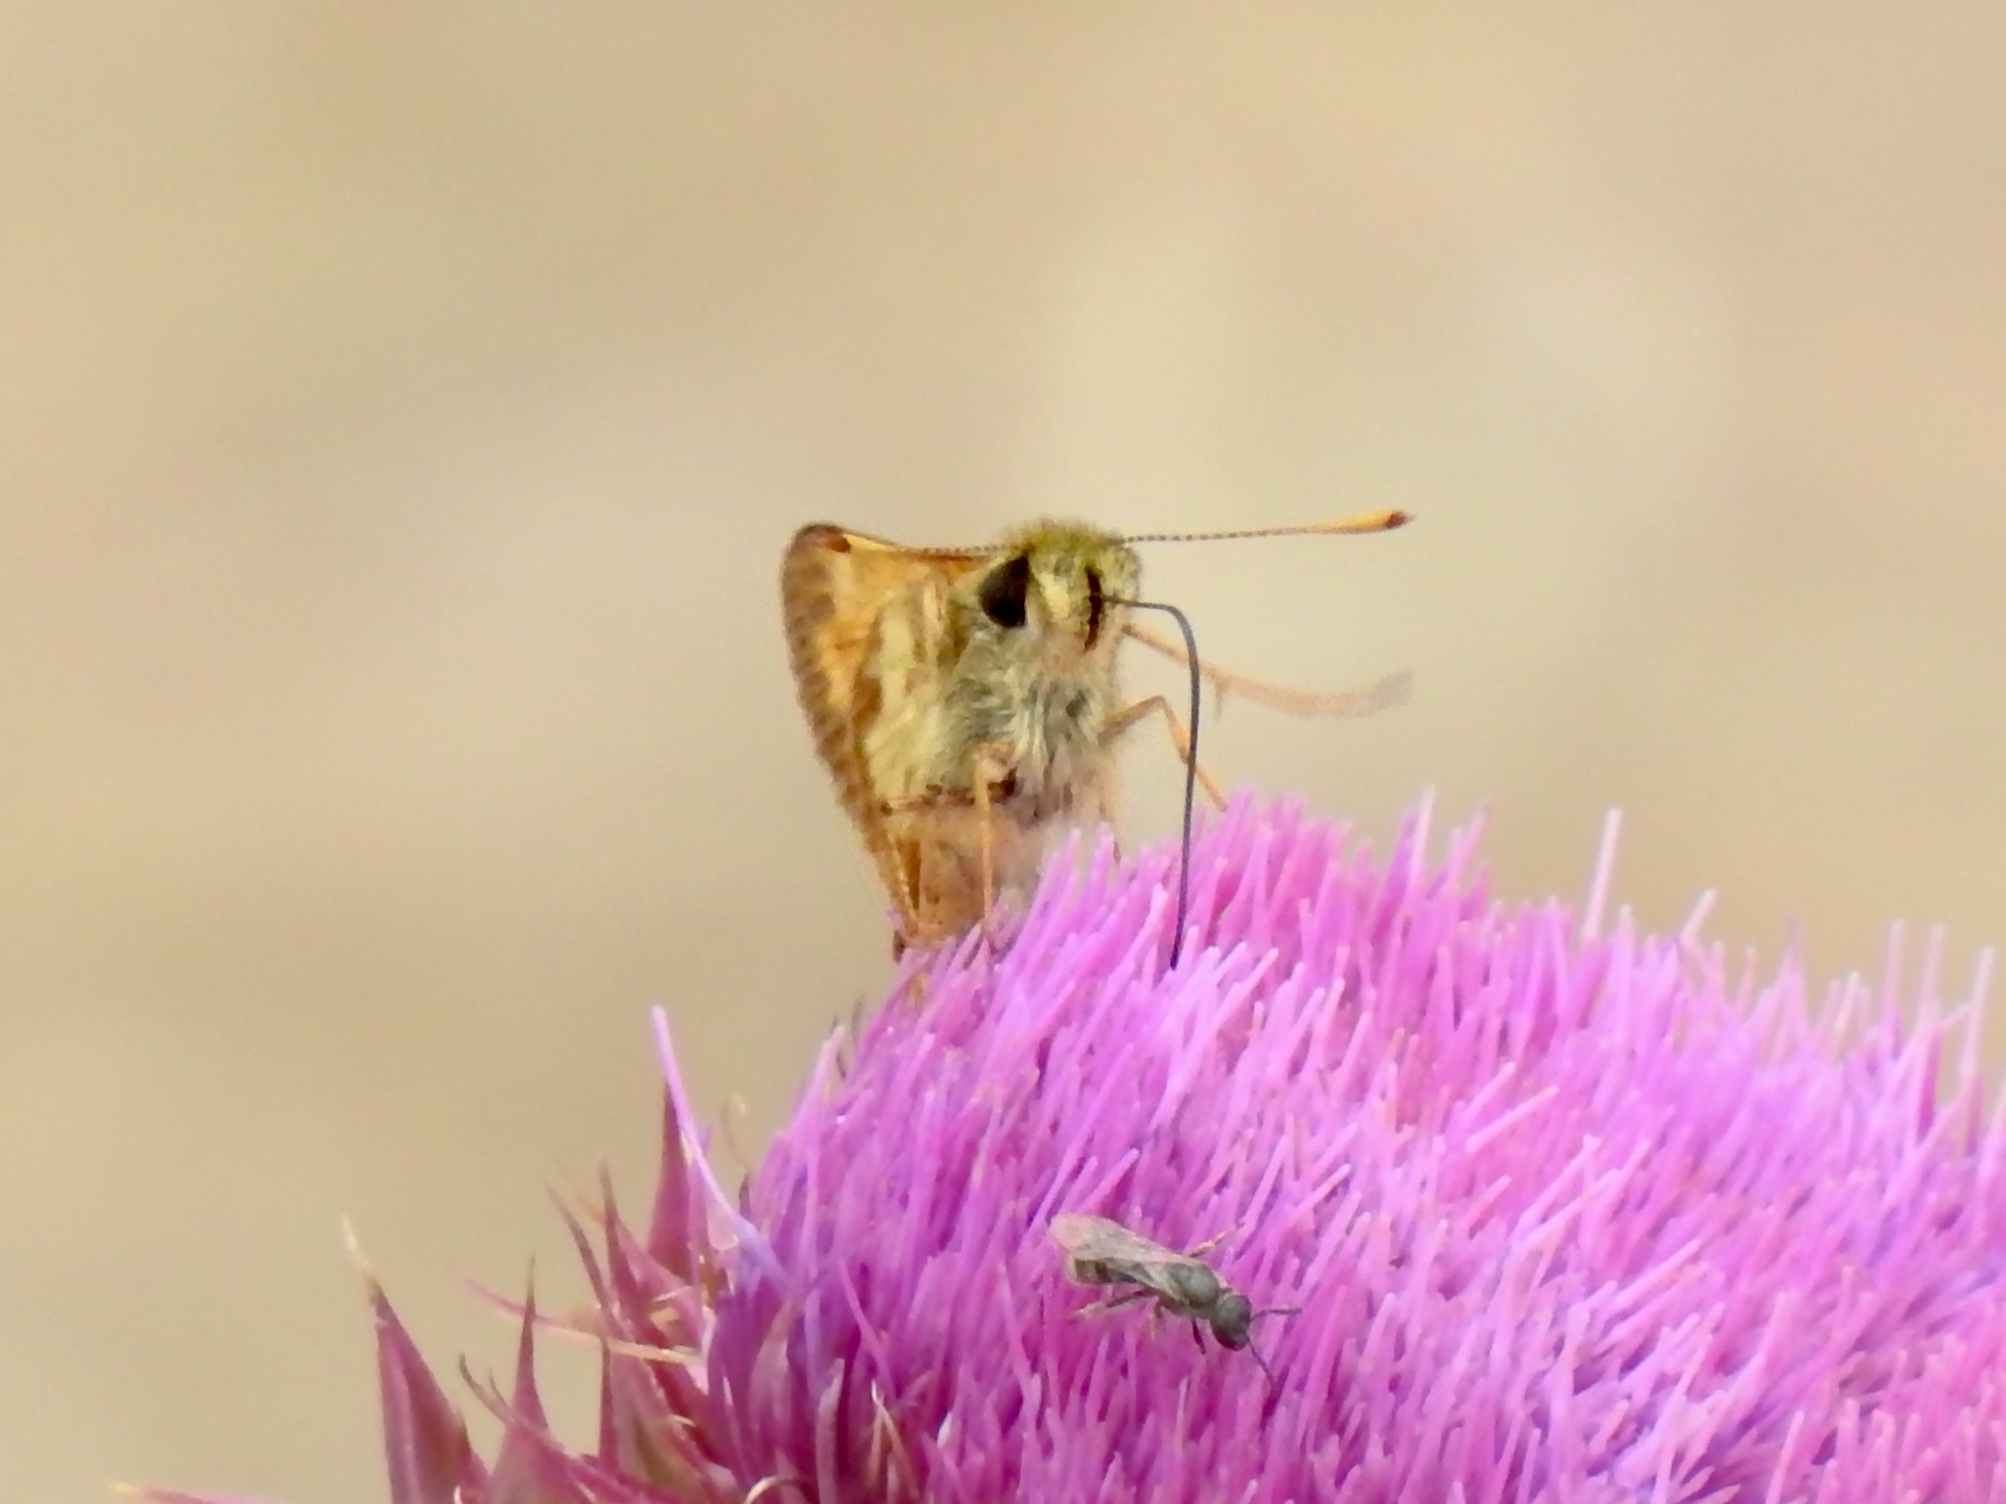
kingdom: Animalia
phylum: Arthropoda
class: Insecta
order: Lepidoptera
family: Hesperiidae
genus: Lon
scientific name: Lon taxiles
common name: Taxiles skipper
